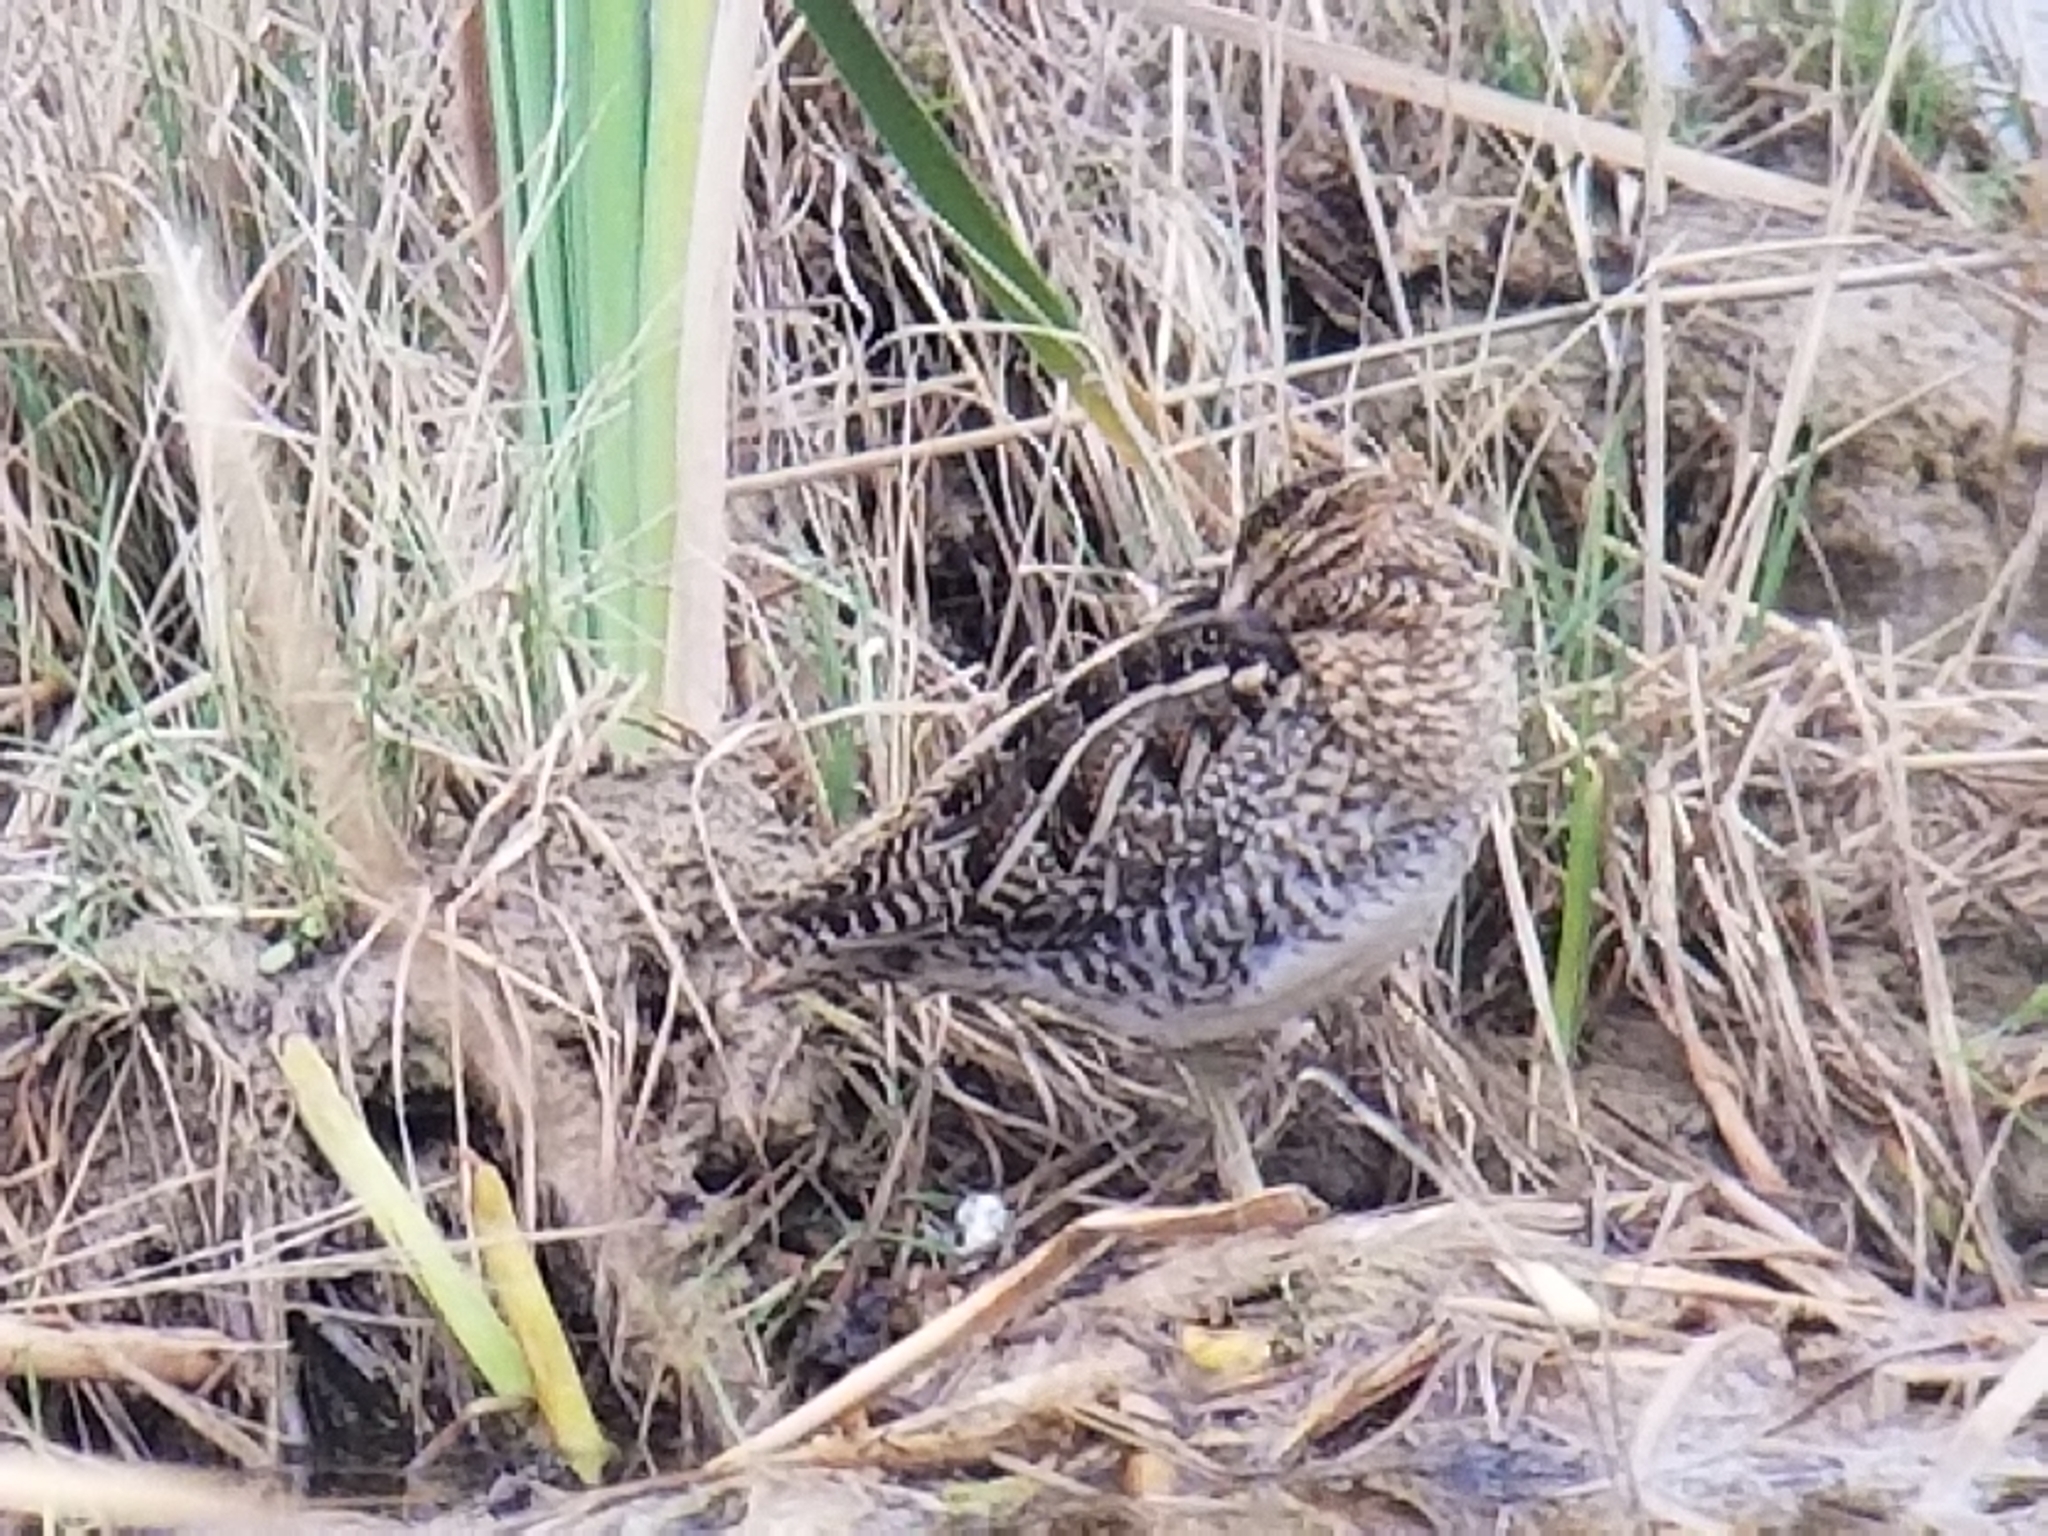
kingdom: Animalia
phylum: Chordata
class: Aves
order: Charadriiformes
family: Scolopacidae
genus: Gallinago
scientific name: Gallinago delicata
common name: Wilson's snipe
